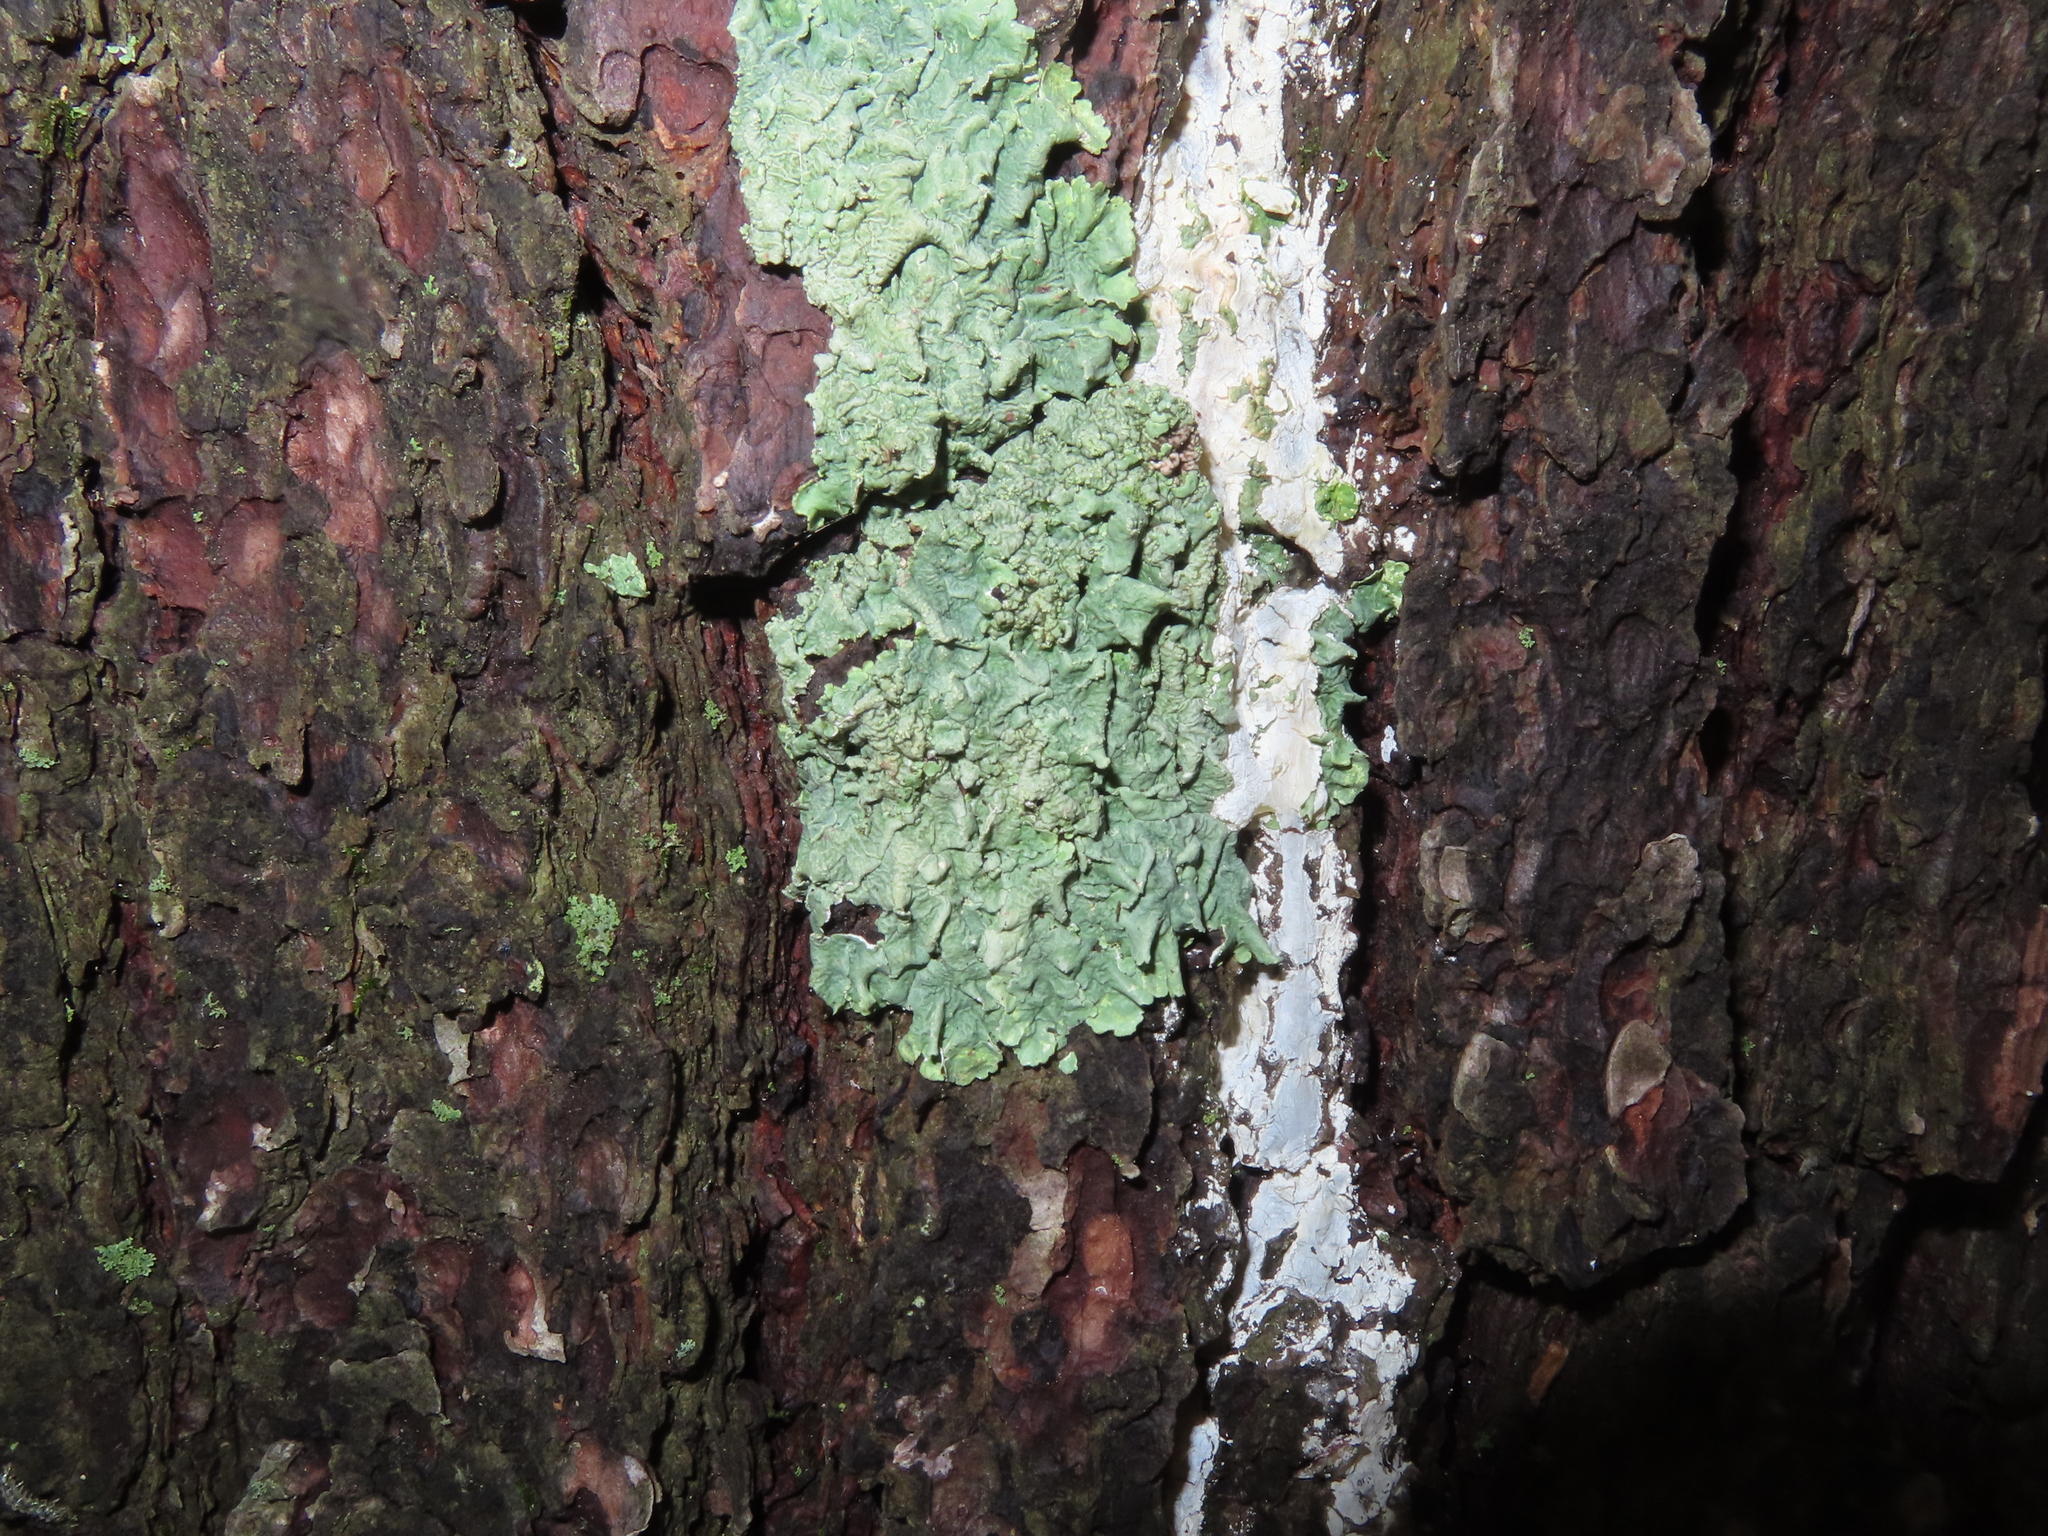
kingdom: Fungi
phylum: Ascomycota
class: Lecanoromycetes
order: Lecanorales
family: Parmeliaceae
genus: Flavoparmelia
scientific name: Flavoparmelia caperata
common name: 40-mile per hour lichen
